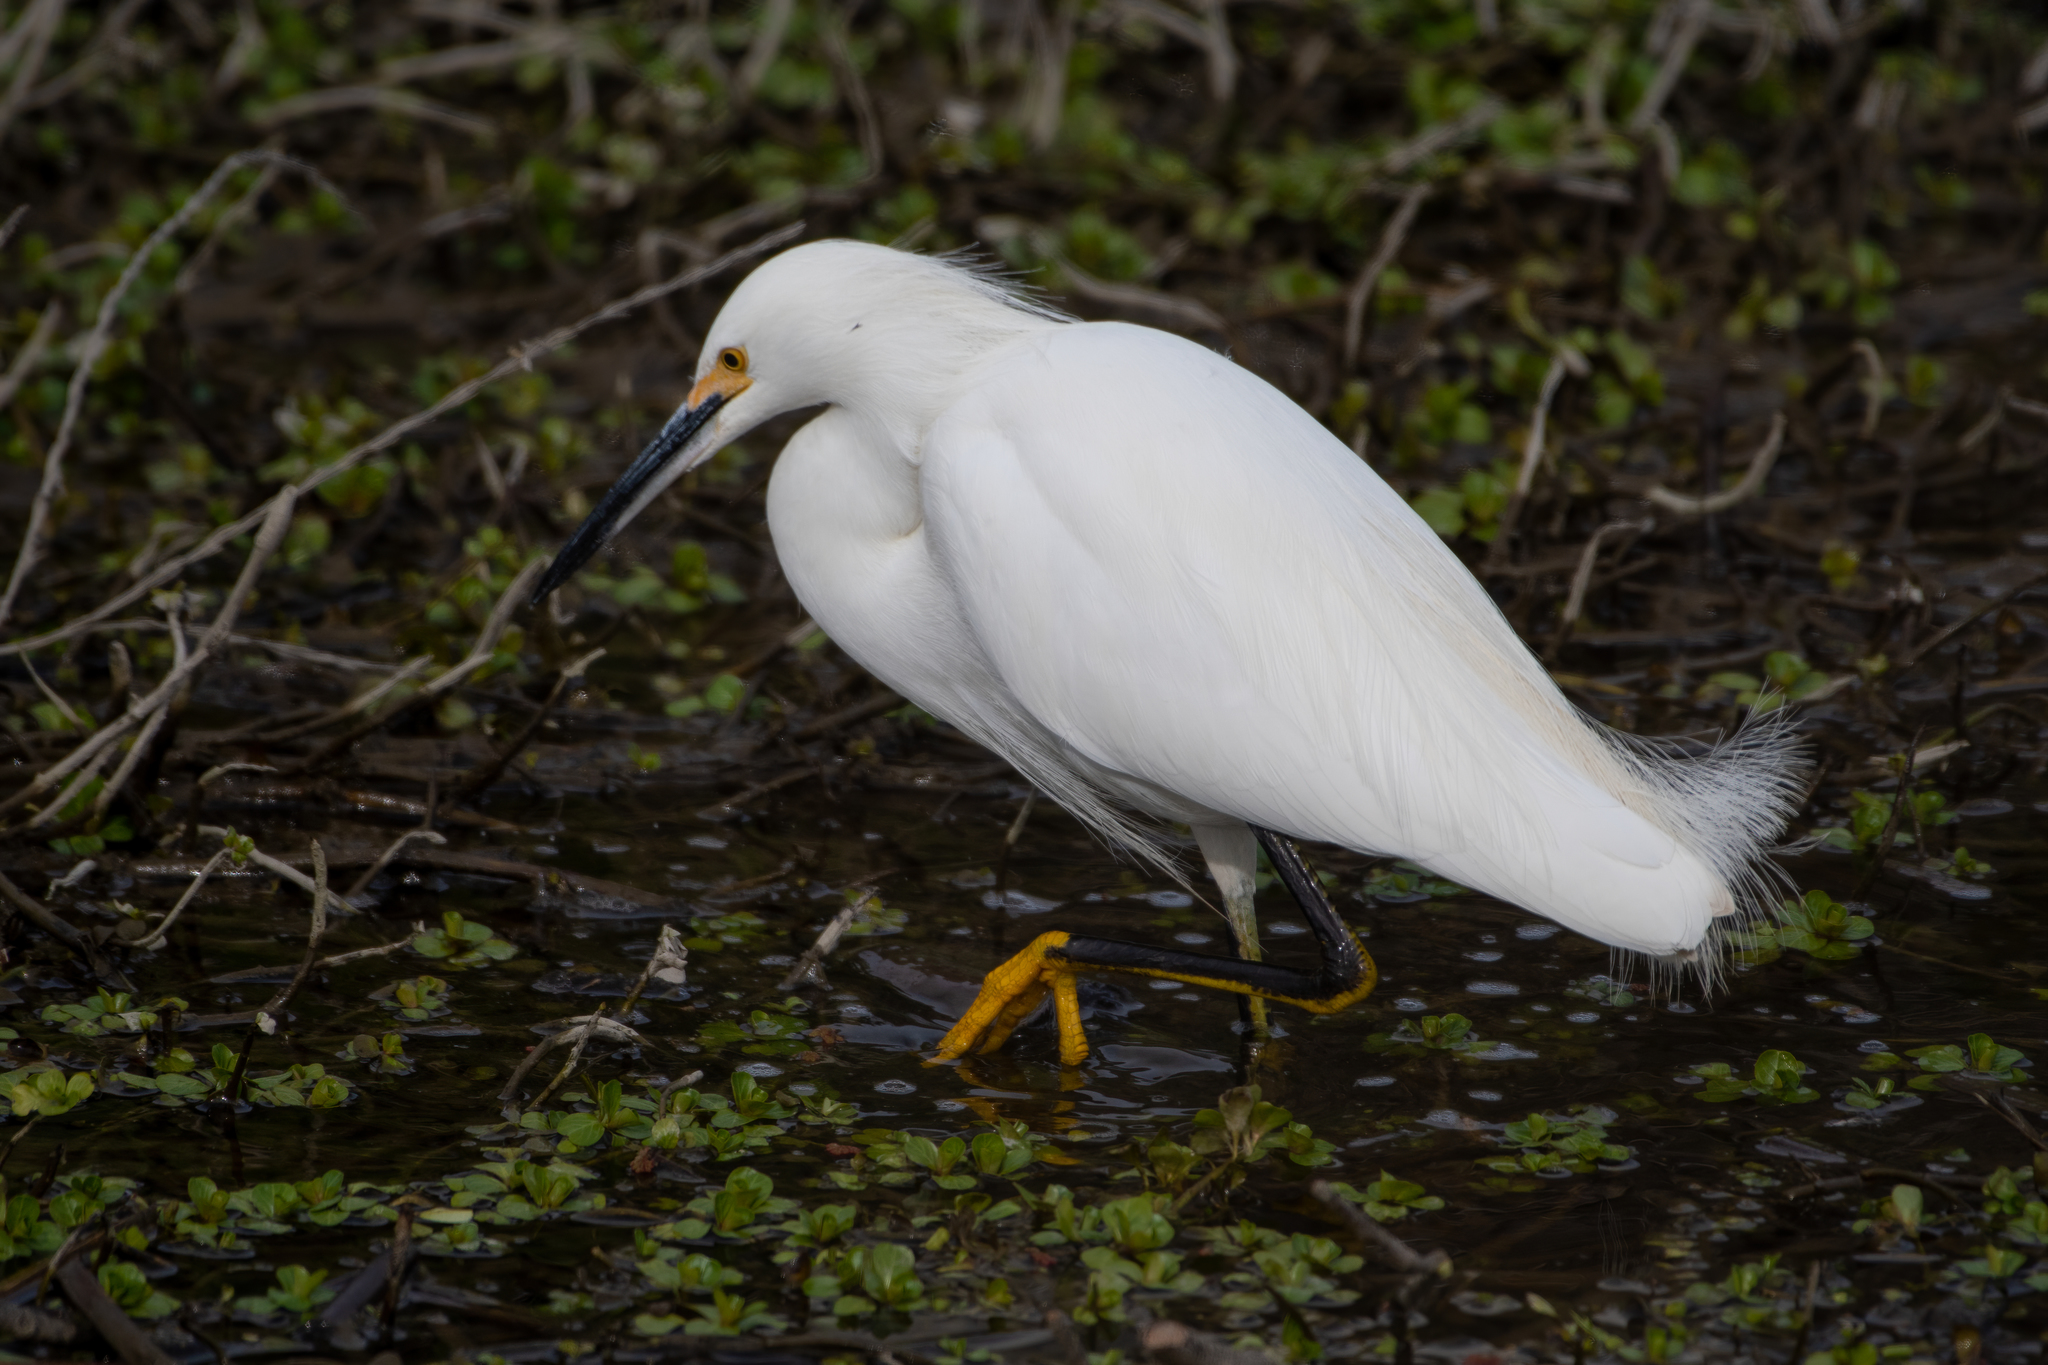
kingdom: Animalia
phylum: Chordata
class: Aves
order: Pelecaniformes
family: Ardeidae
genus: Egretta
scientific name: Egretta thula
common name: Snowy egret
